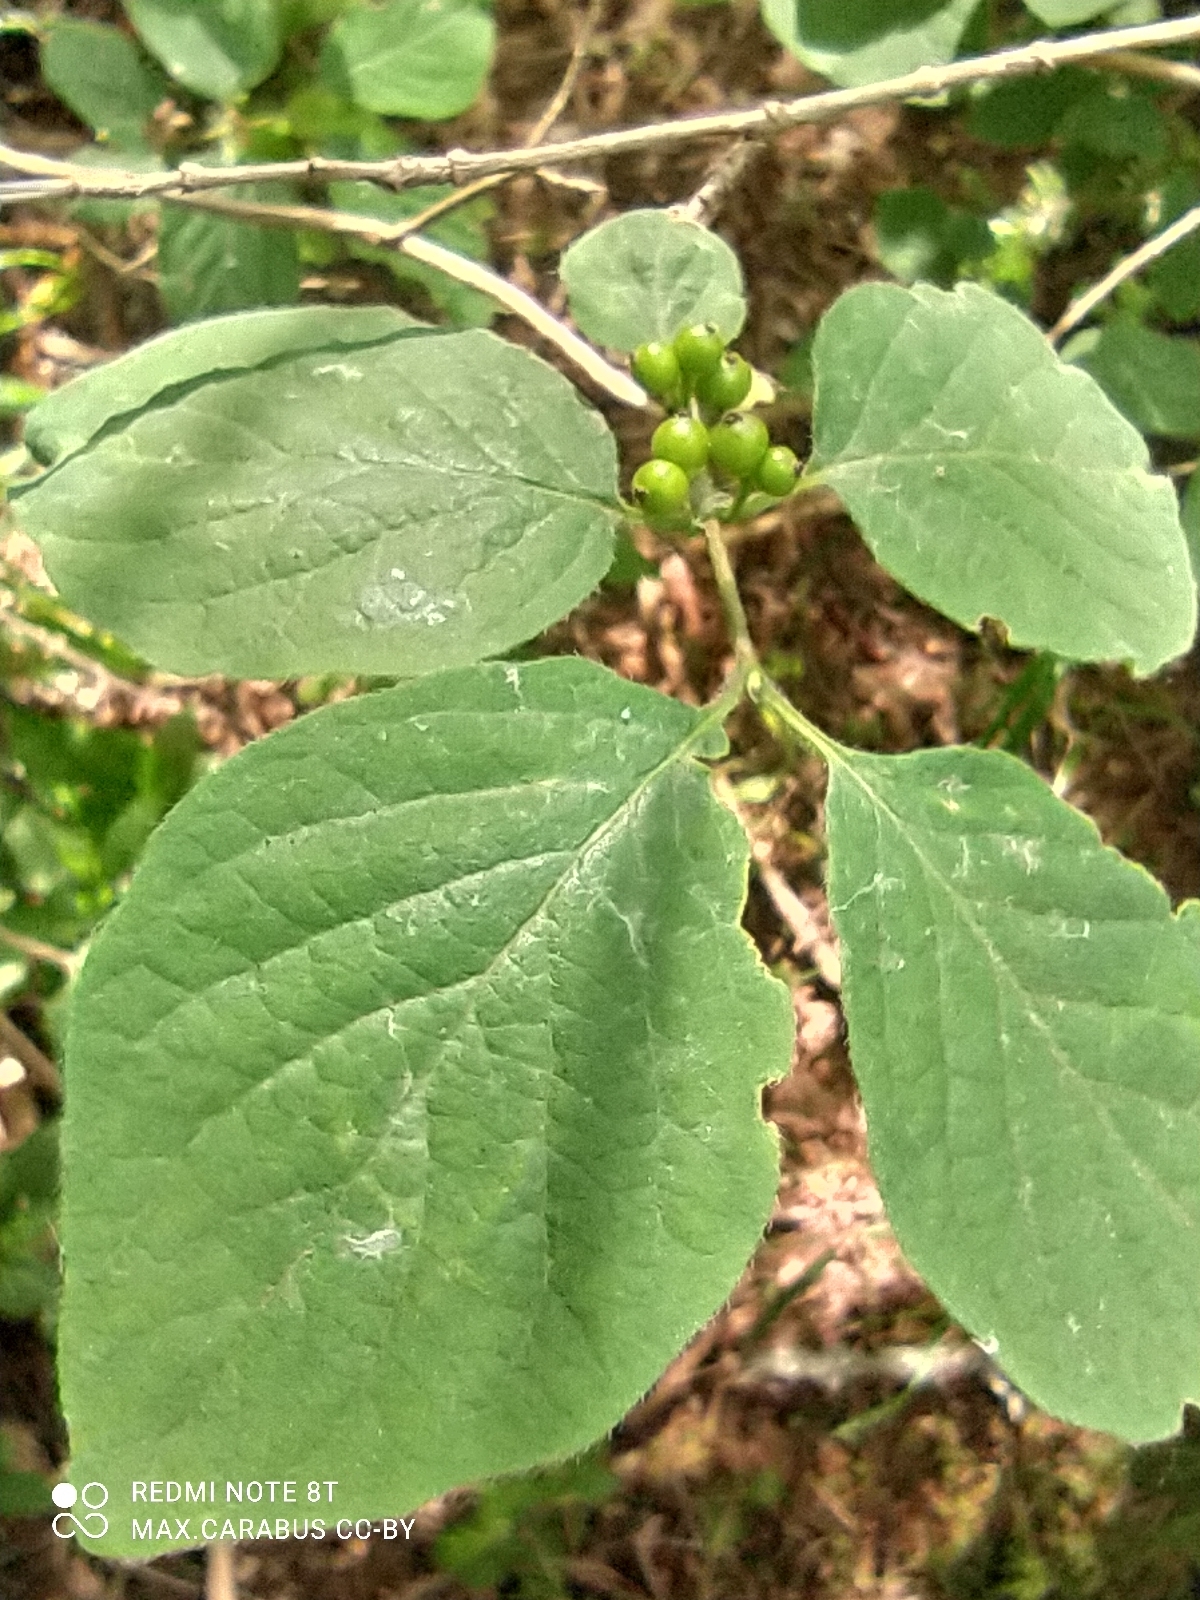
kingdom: Plantae
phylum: Tracheophyta
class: Magnoliopsida
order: Dipsacales
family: Caprifoliaceae
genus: Lonicera
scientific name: Lonicera xylosteum
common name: Fly honeysuckle
